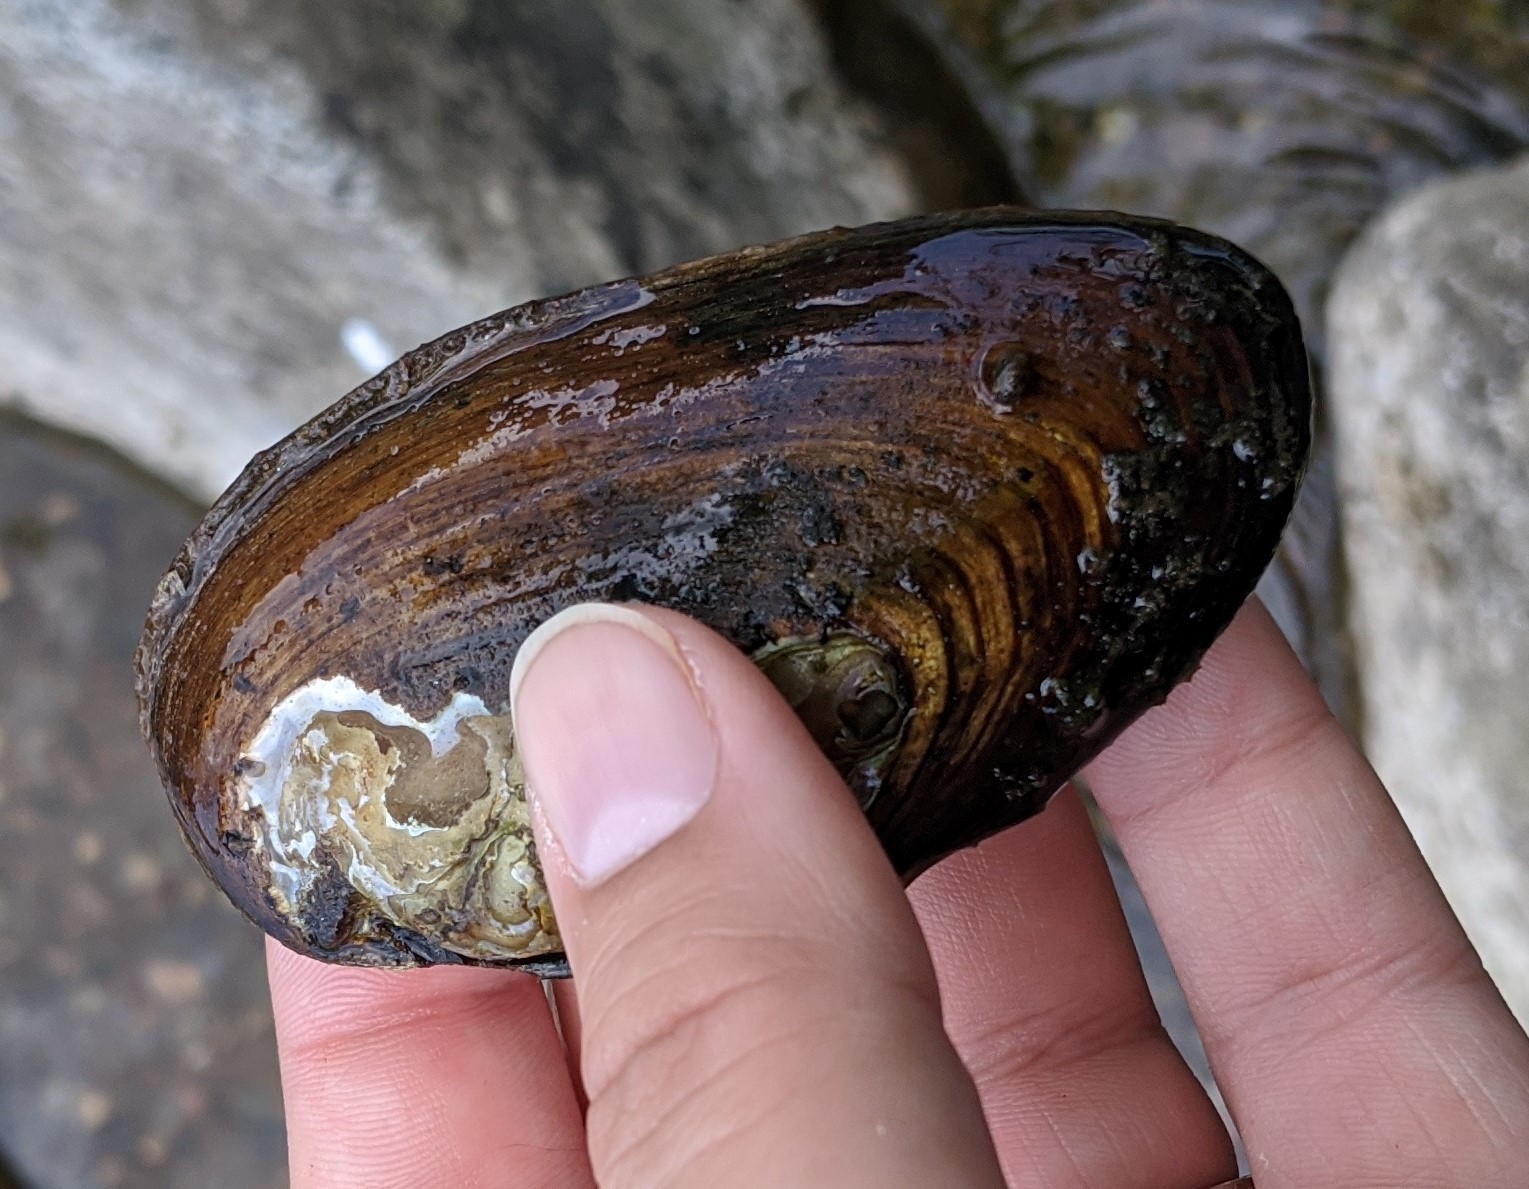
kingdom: Animalia
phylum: Mollusca
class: Bivalvia
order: Unionida
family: Unionidae
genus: Elliptio
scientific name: Elliptio complanata
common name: Eastern elliptio
